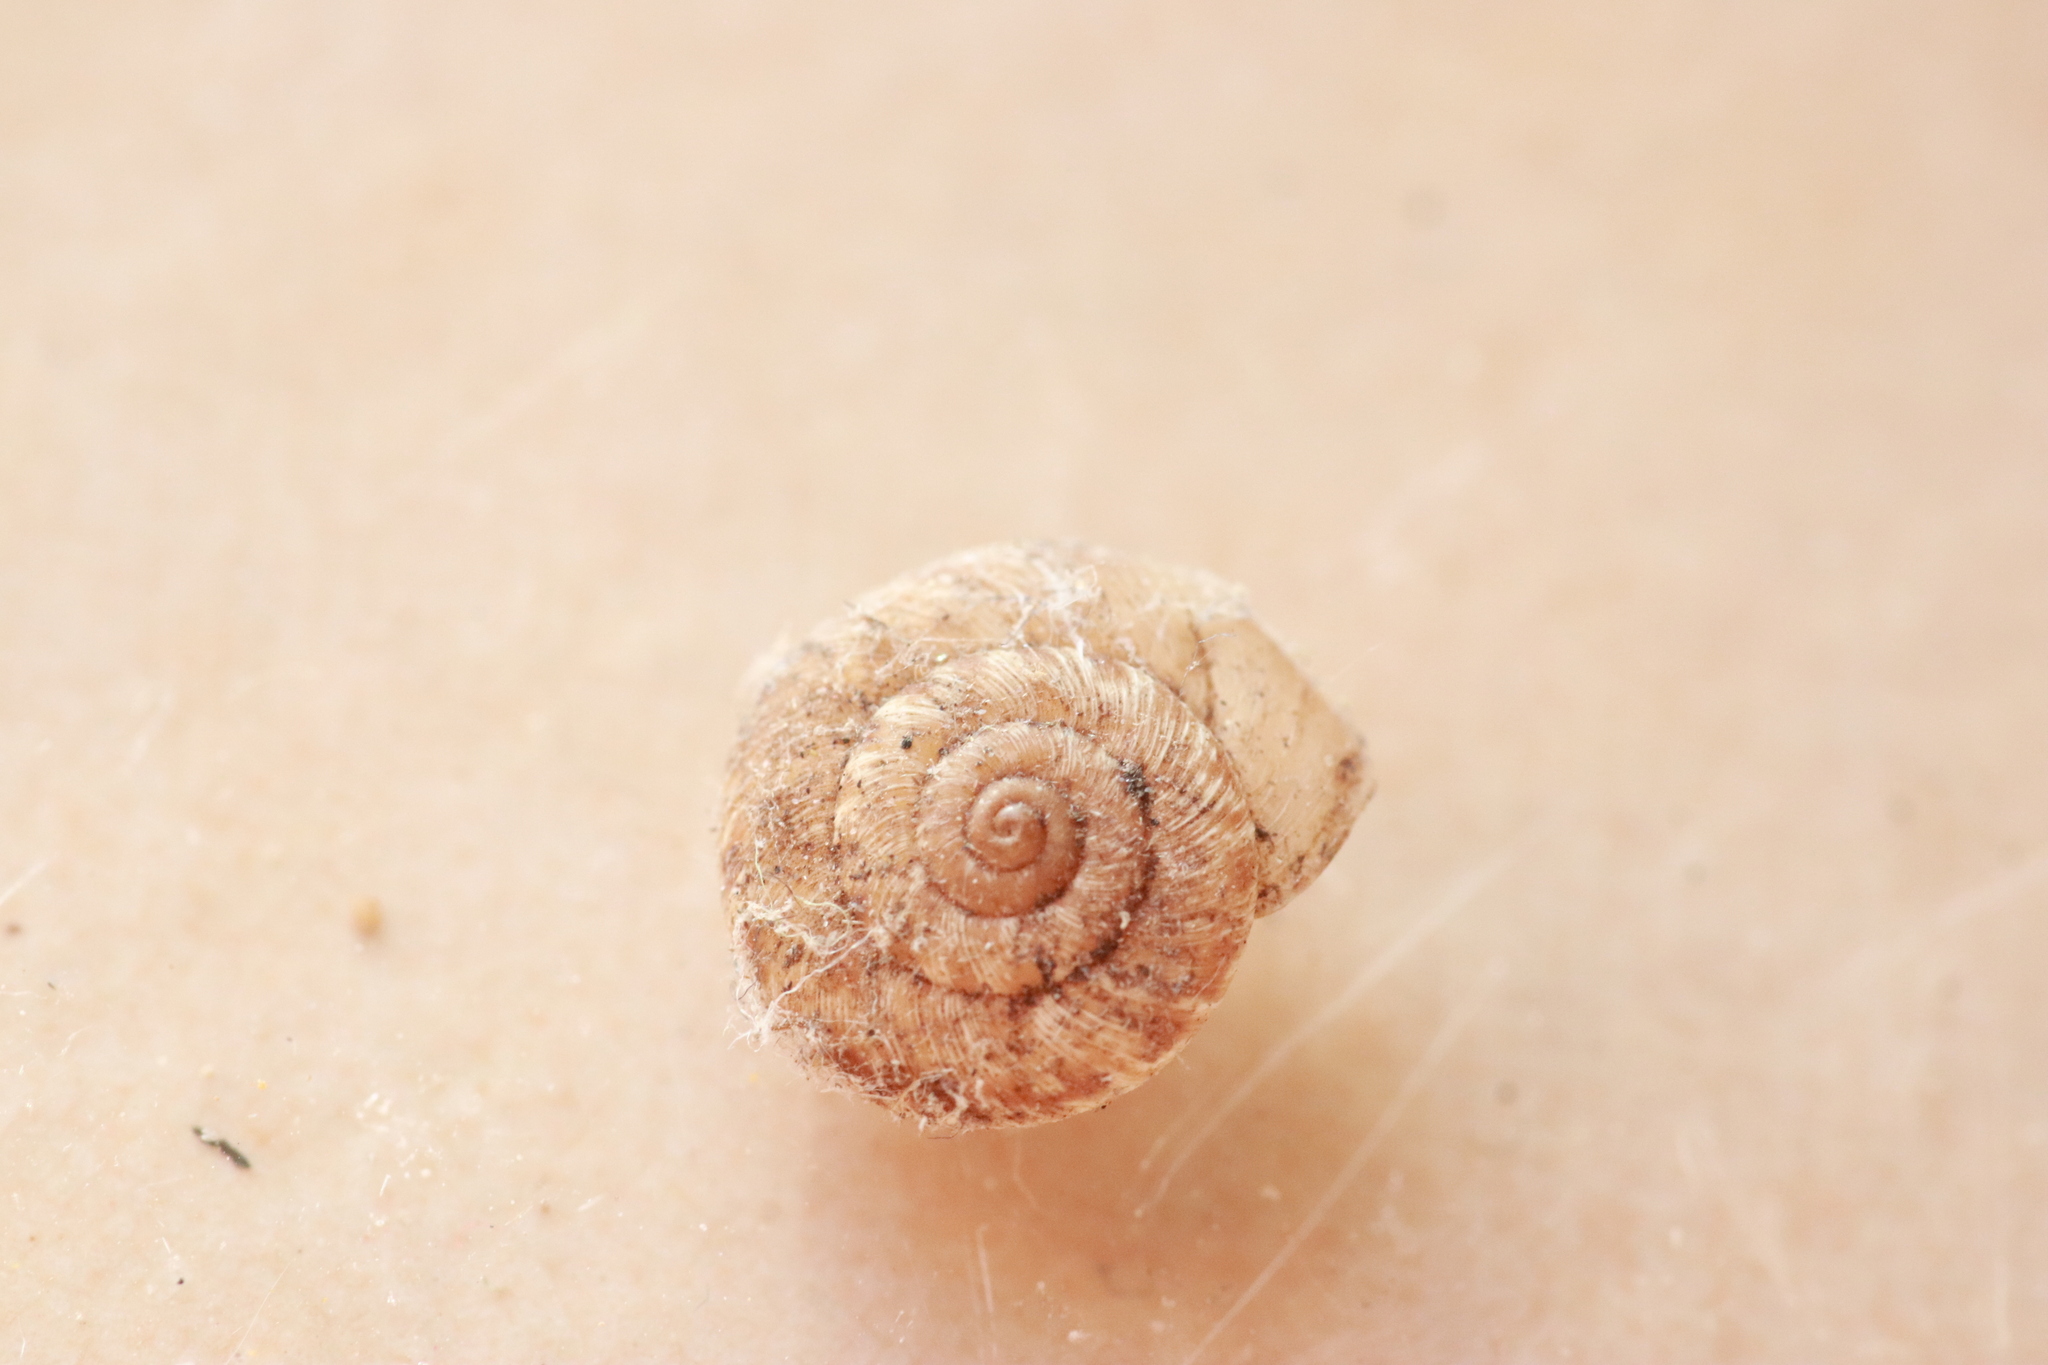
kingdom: Animalia
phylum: Mollusca
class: Gastropoda
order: Stylommatophora
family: Geomitridae
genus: Xerotricha
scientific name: Xerotricha conspurcata
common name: Snail
